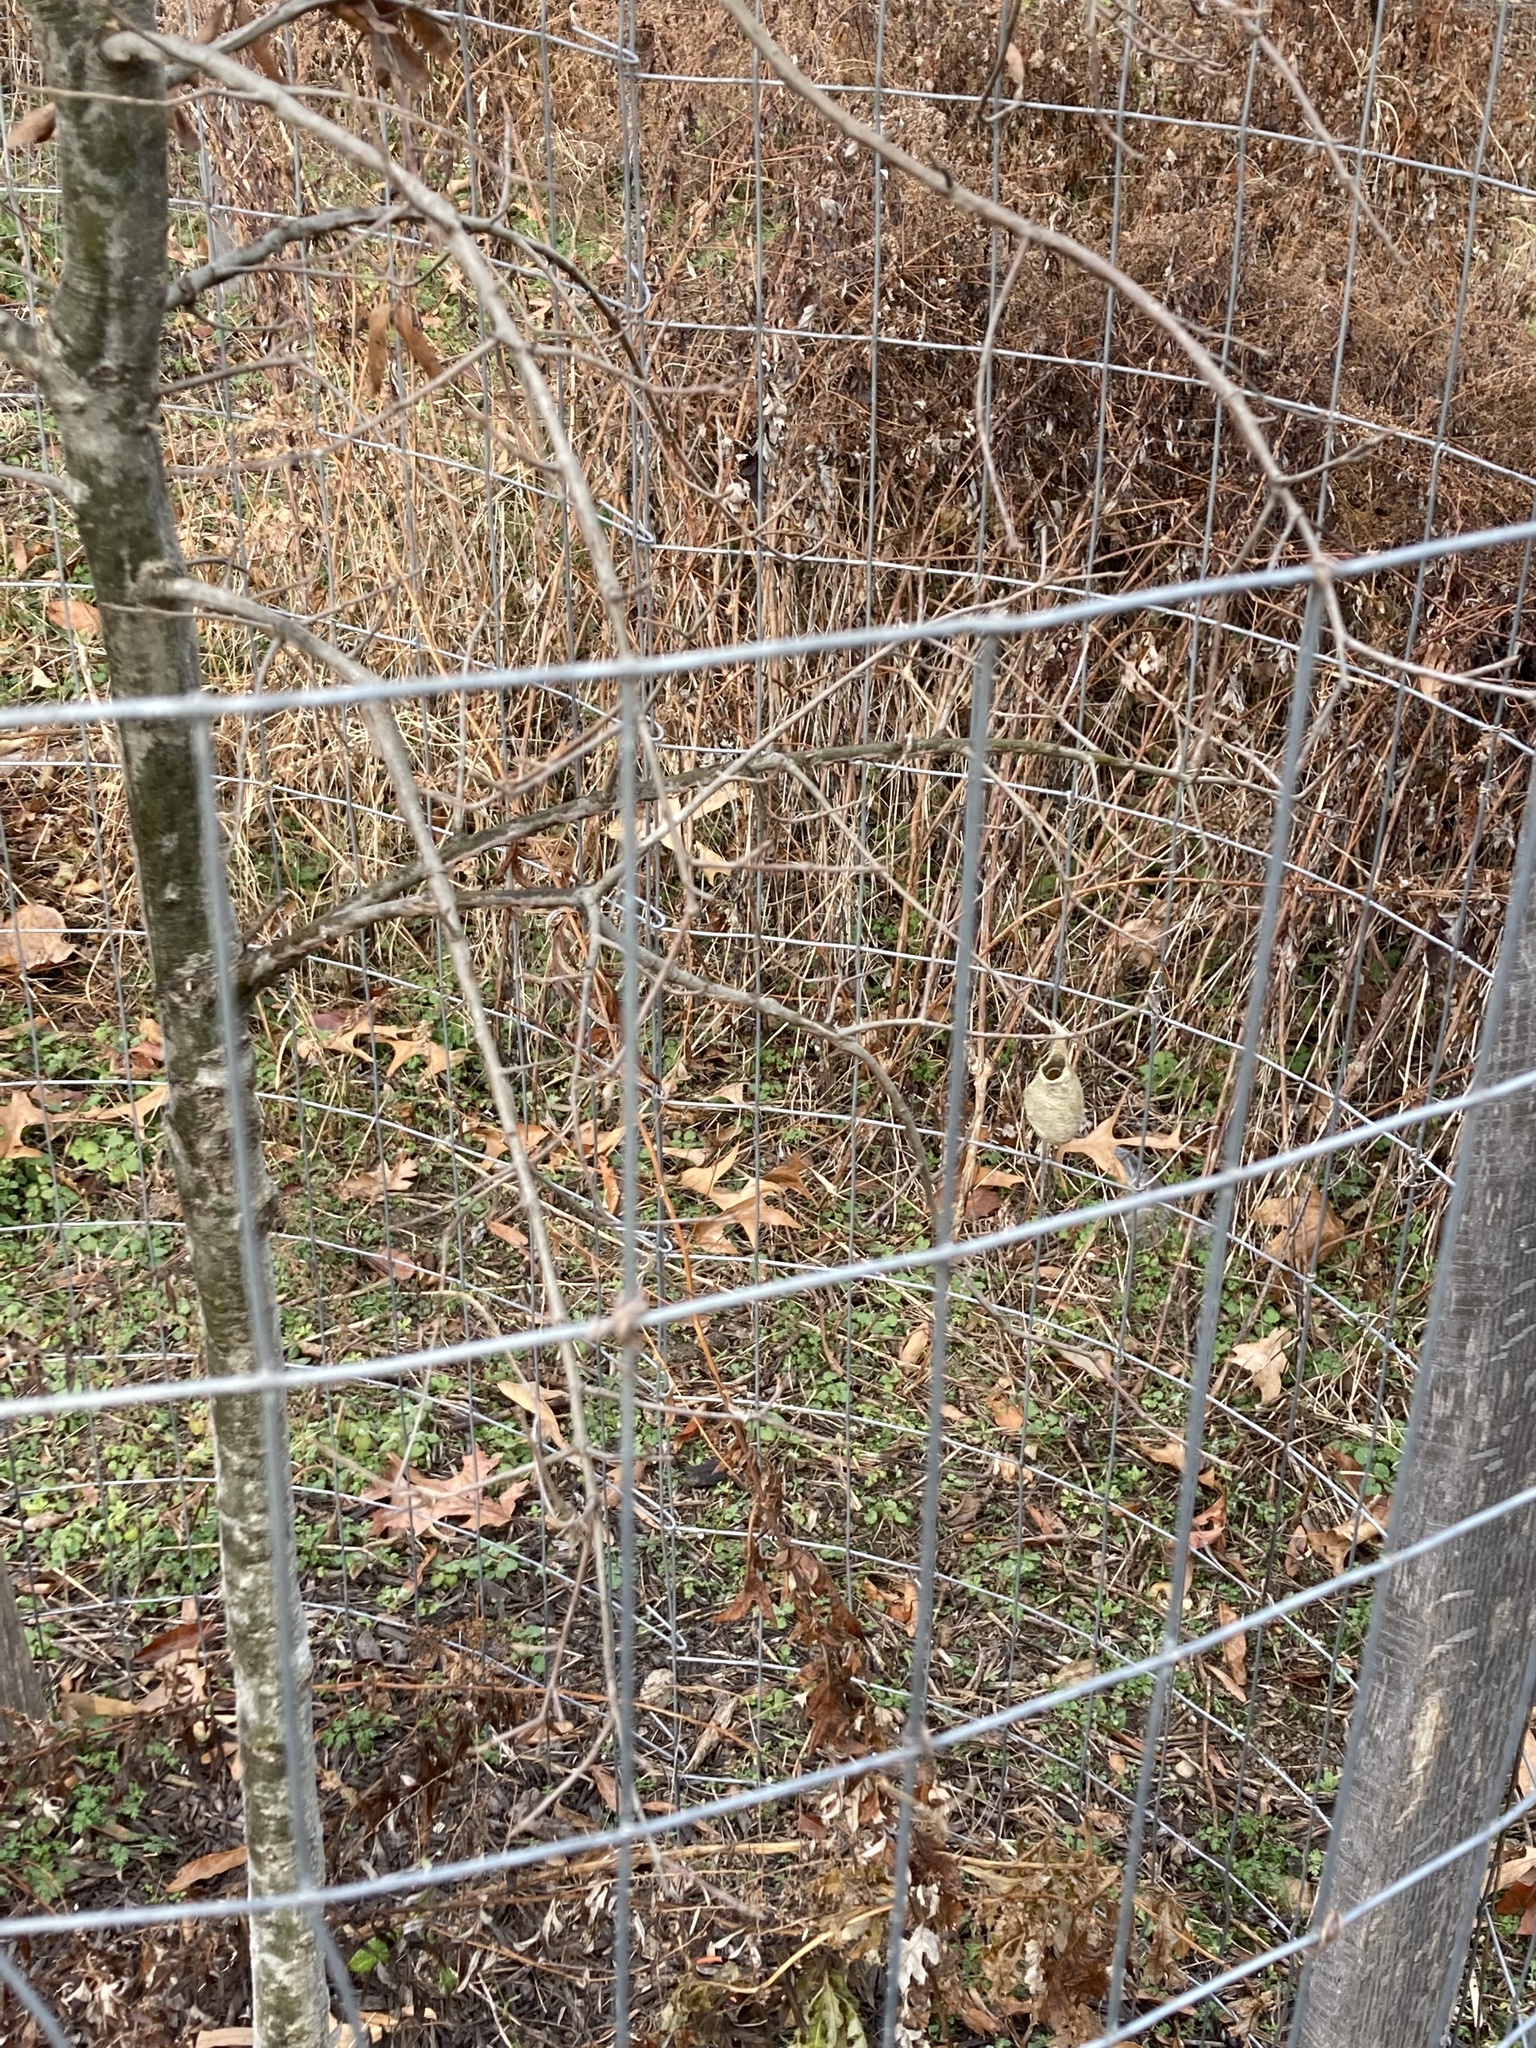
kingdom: Animalia
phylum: Arthropoda
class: Insecta
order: Lepidoptera
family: Saturniidae
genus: Antheraea
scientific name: Antheraea polyphemus
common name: Polyphemus moth
